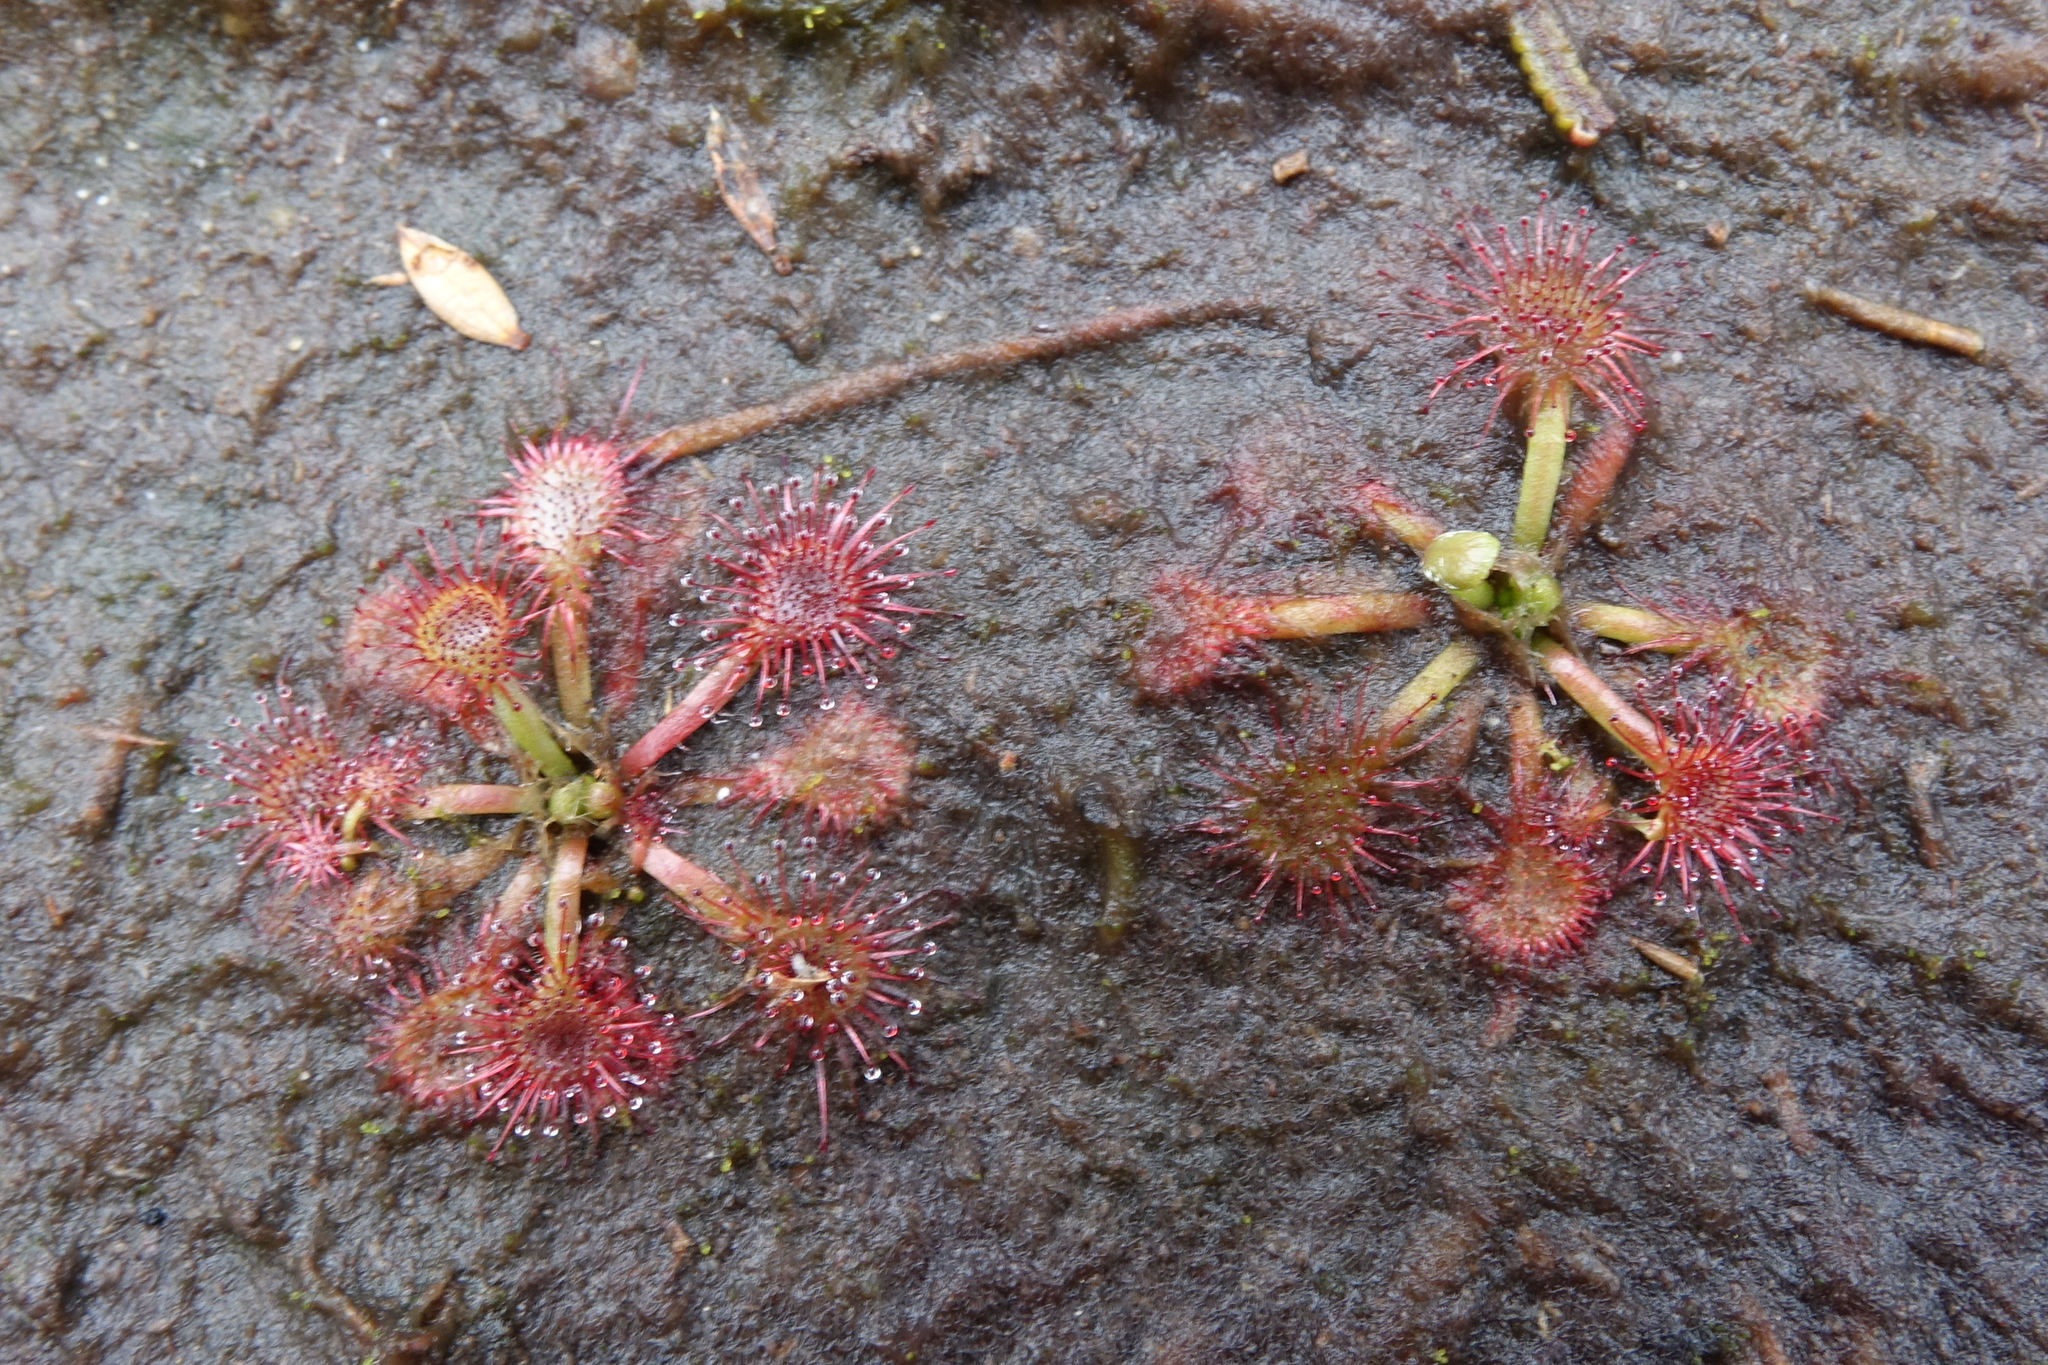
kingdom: Plantae
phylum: Tracheophyta
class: Magnoliopsida
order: Caryophyllales
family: Droseraceae
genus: Drosera
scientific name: Drosera spatulata
